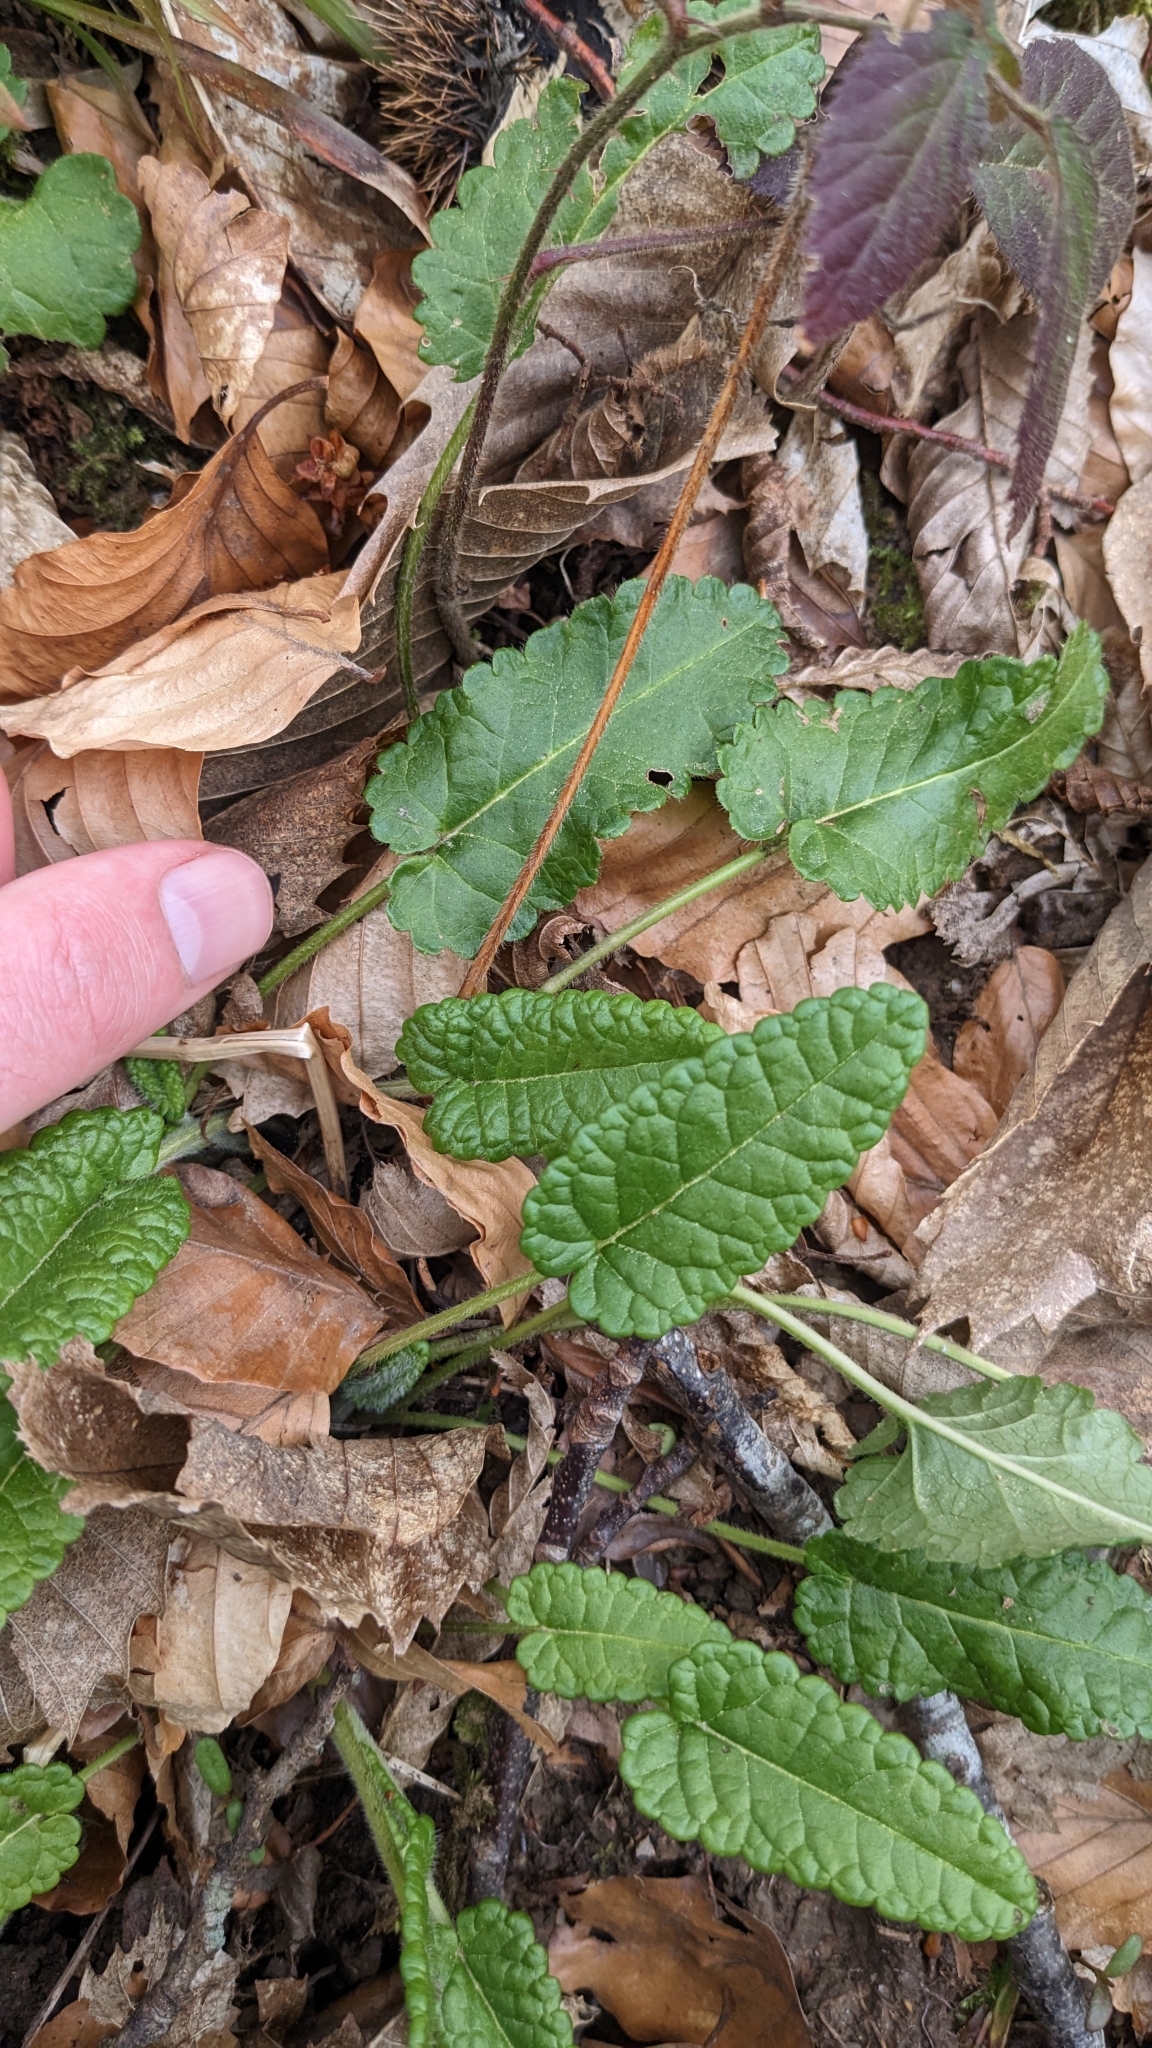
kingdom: Plantae
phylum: Tracheophyta
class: Magnoliopsida
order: Lamiales
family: Lamiaceae
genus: Betonica
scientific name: Betonica officinalis
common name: Bishop's-wort
